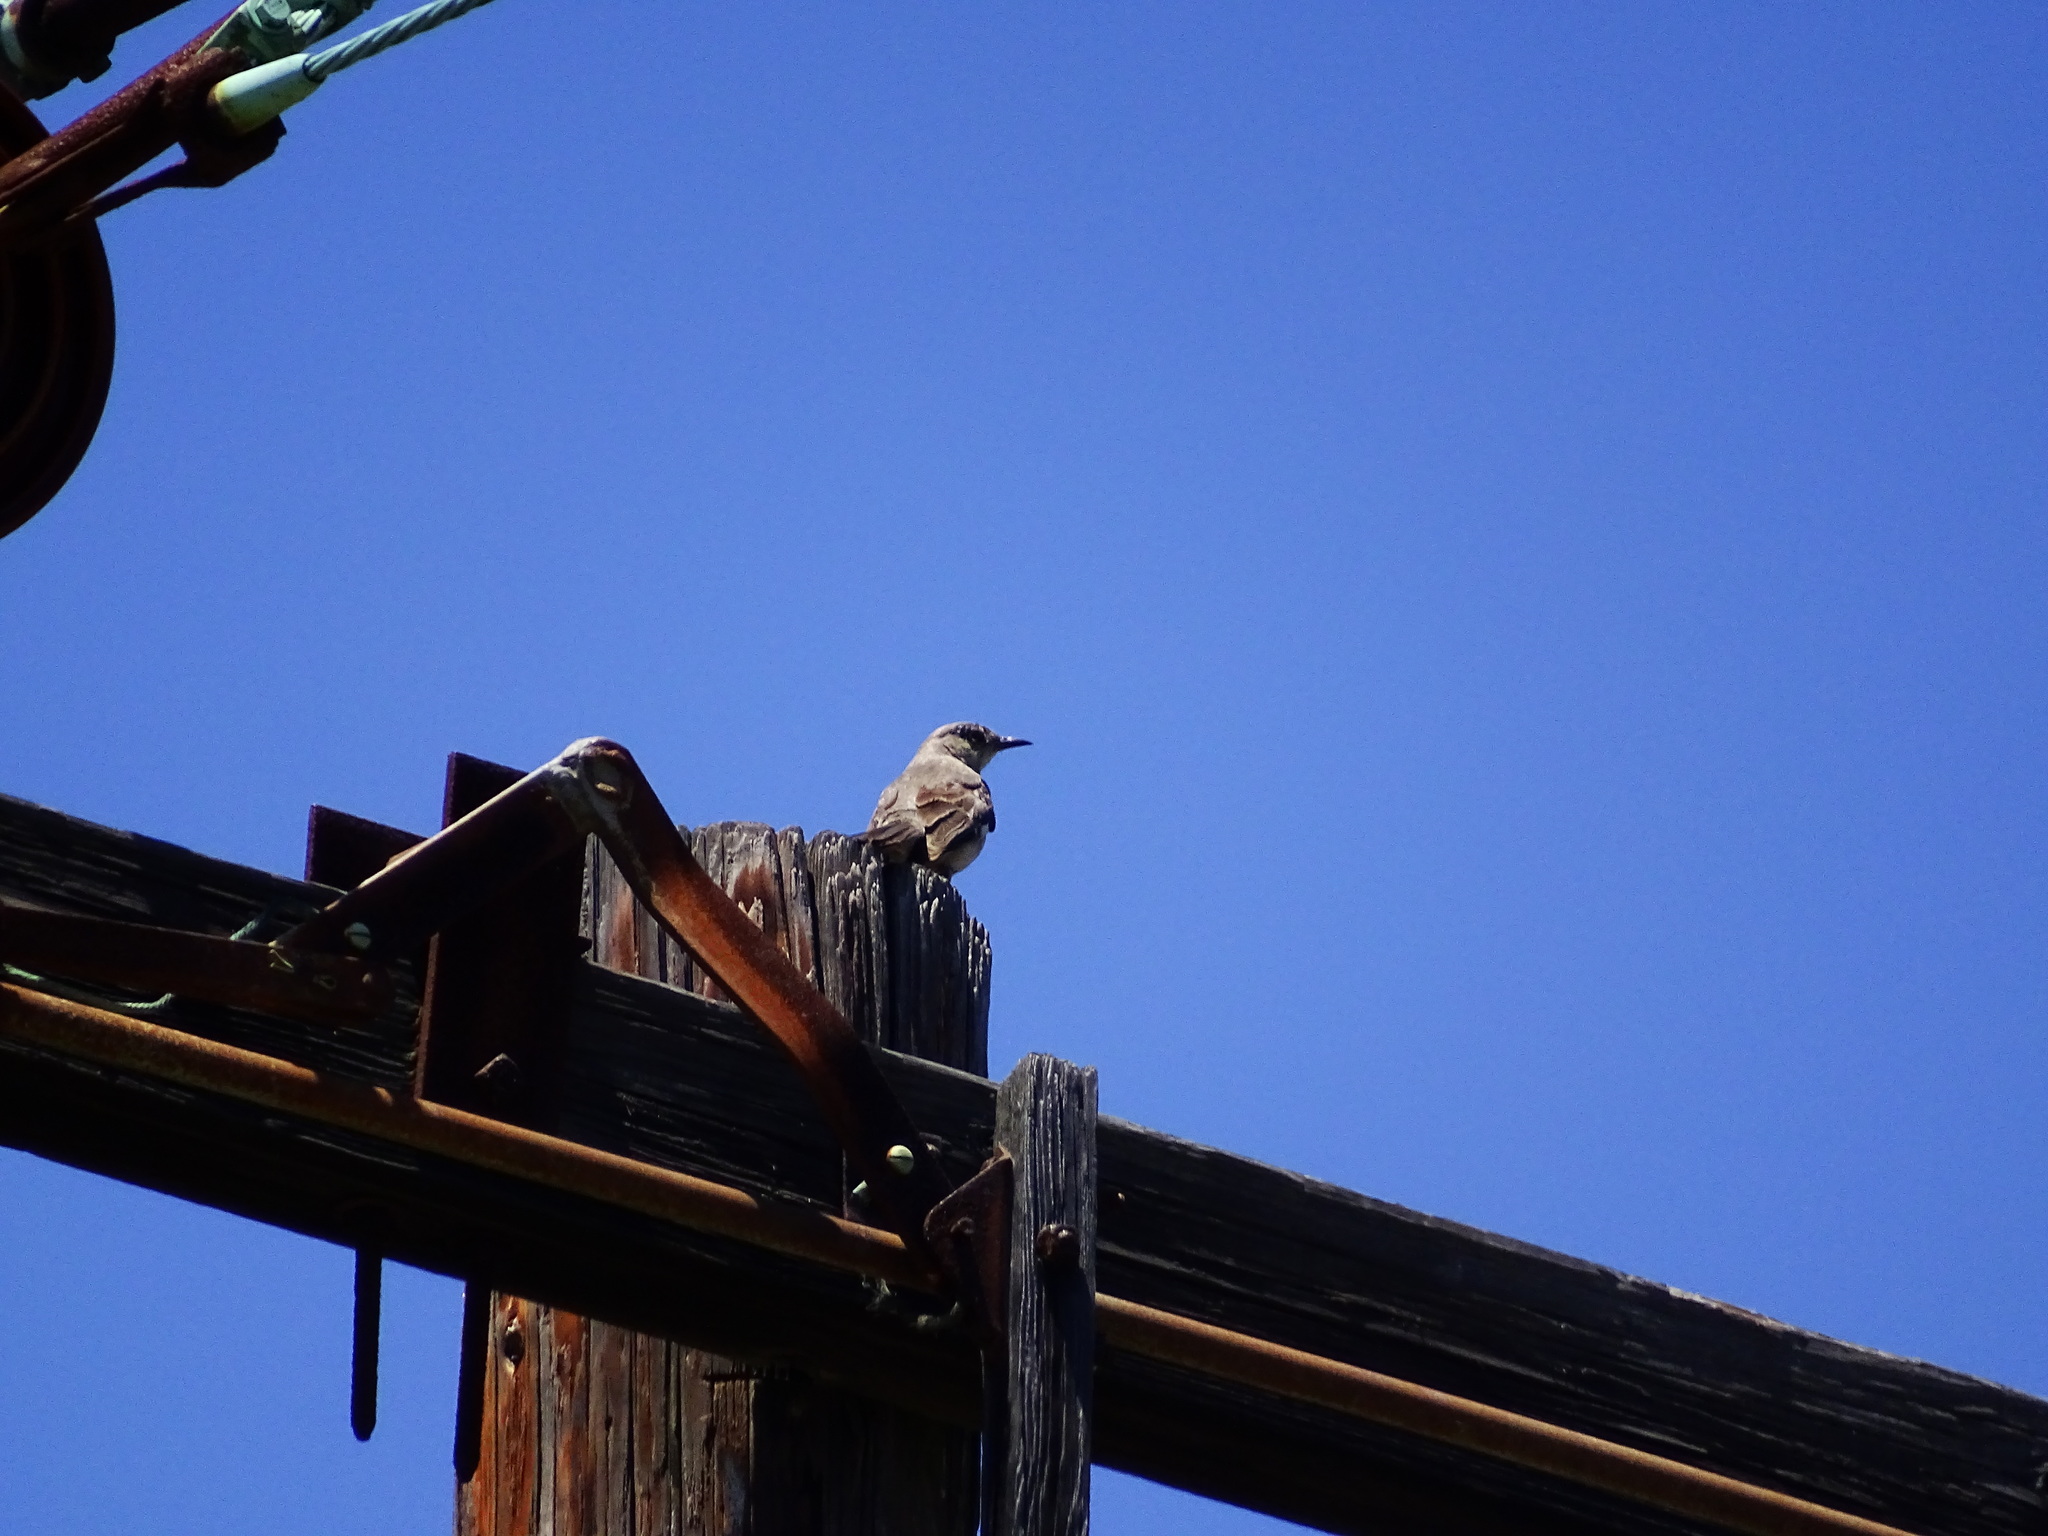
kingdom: Animalia
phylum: Chordata
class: Aves
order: Passeriformes
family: Mimidae
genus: Mimus
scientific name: Mimus polyglottos
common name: Northern mockingbird
